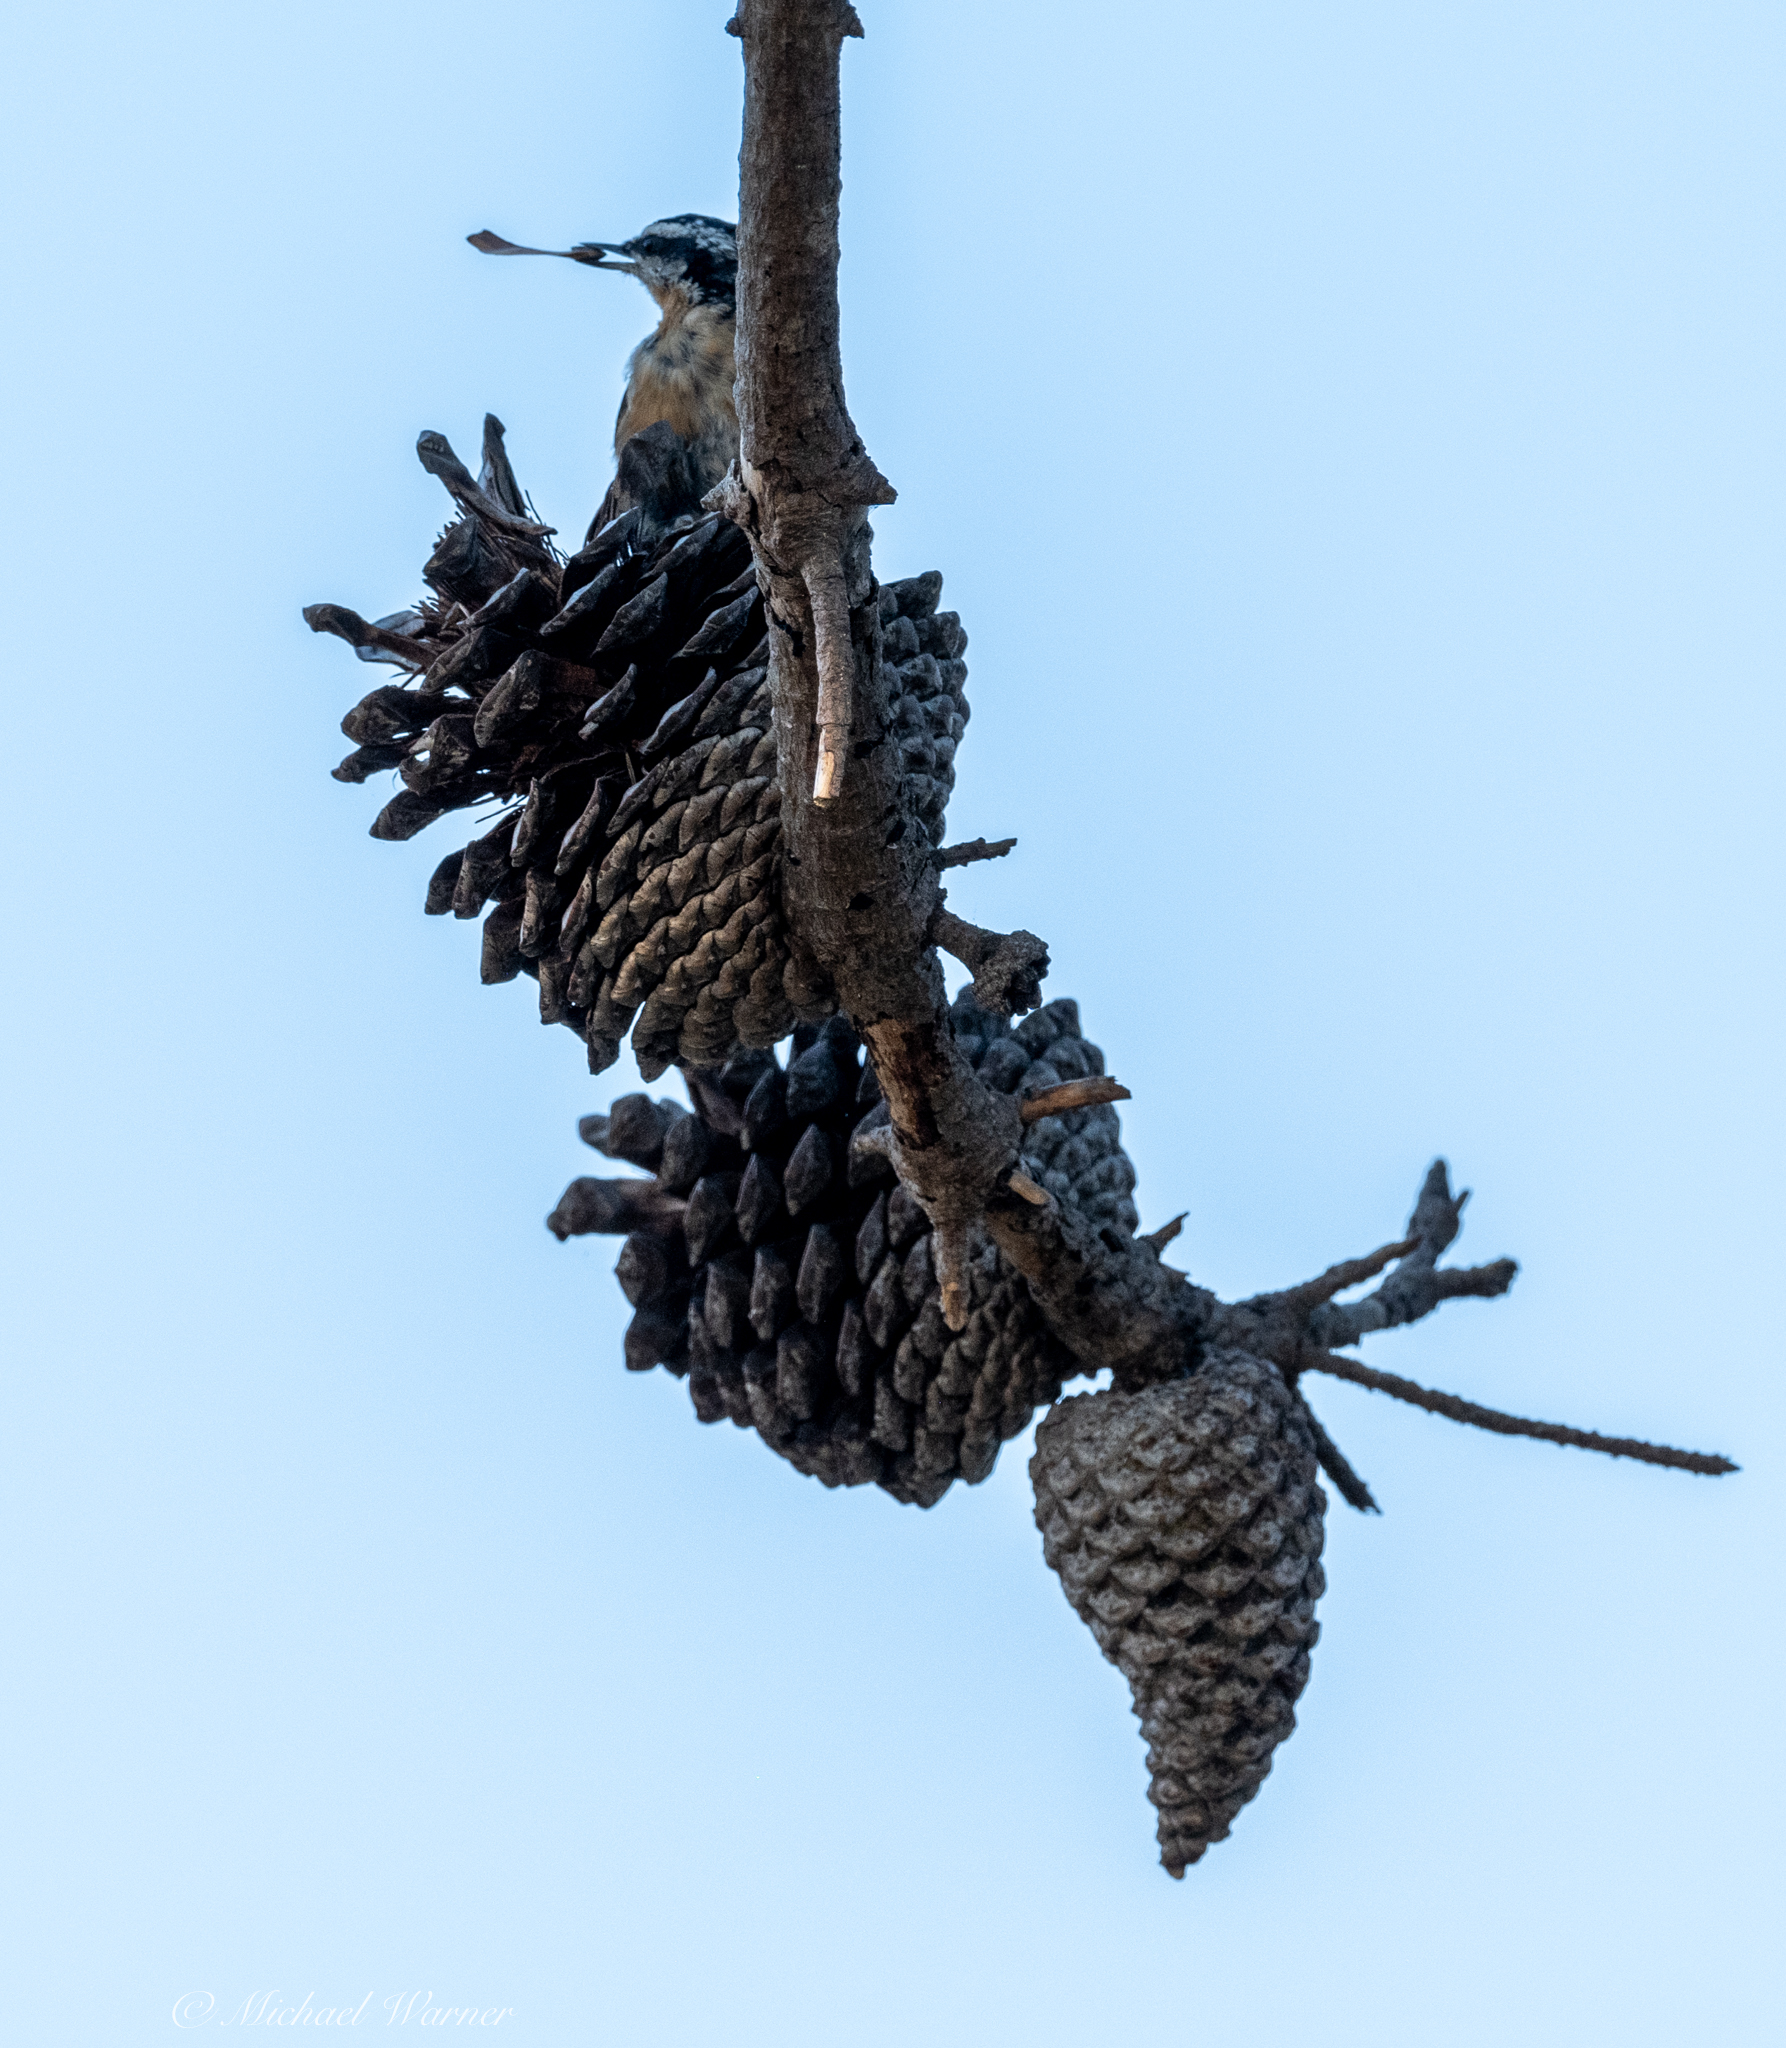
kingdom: Animalia
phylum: Chordata
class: Aves
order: Passeriformes
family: Sittidae
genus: Sitta
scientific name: Sitta canadensis
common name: Red-breasted nuthatch
